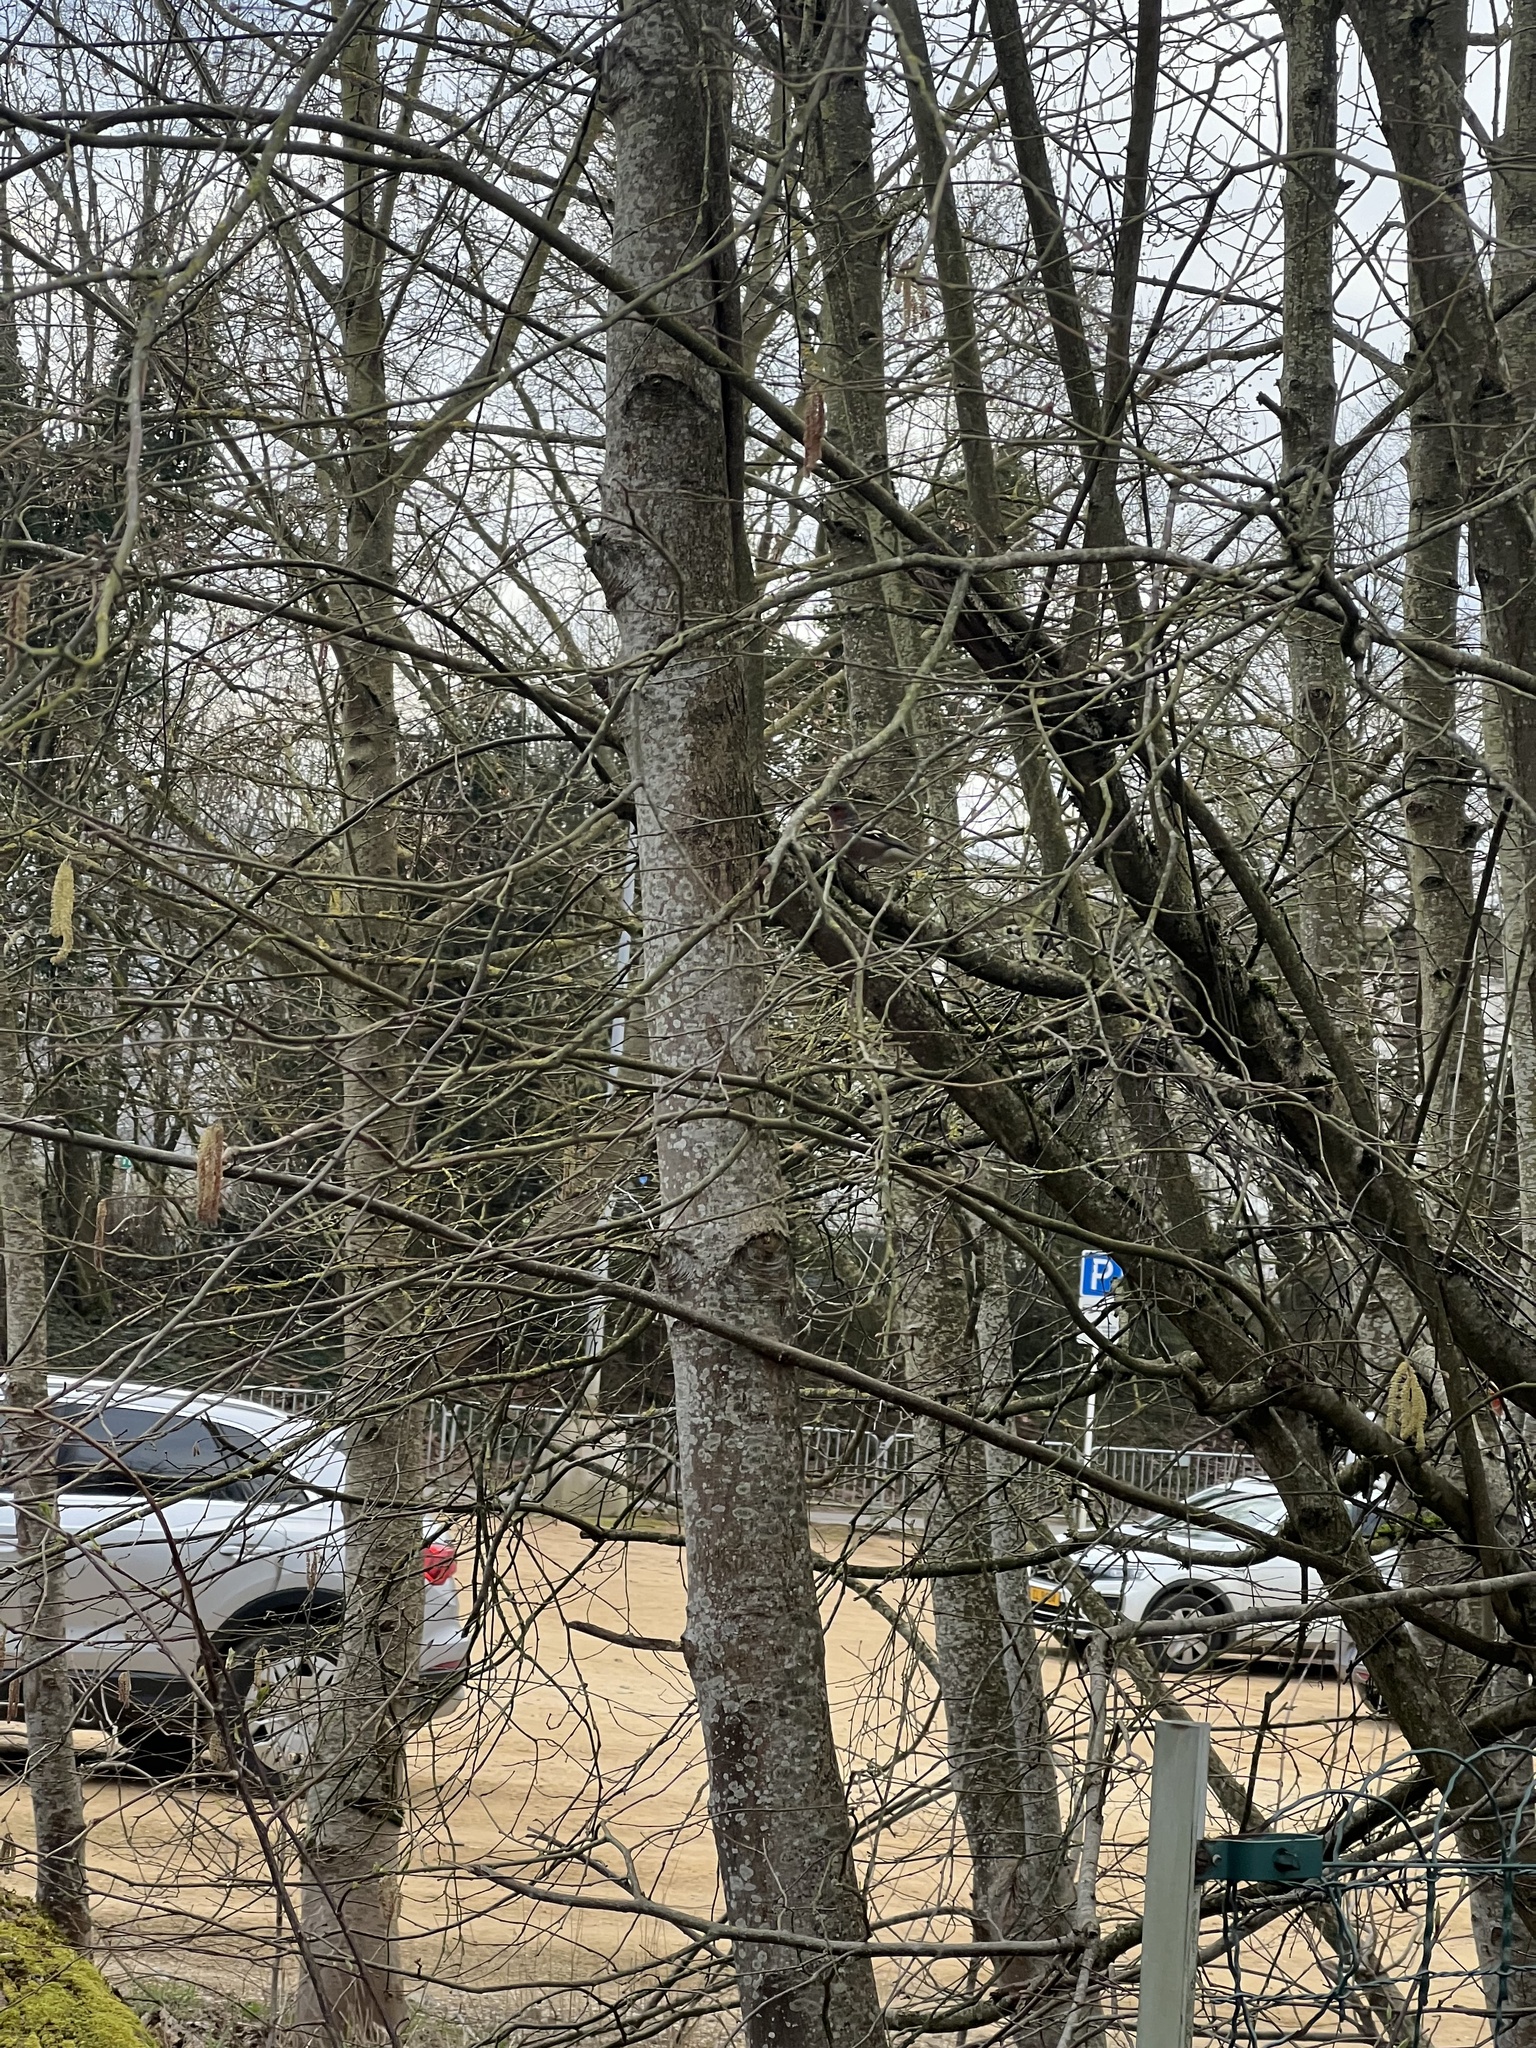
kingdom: Animalia
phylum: Chordata
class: Aves
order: Passeriformes
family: Fringillidae
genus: Fringilla
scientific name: Fringilla coelebs
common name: Common chaffinch
